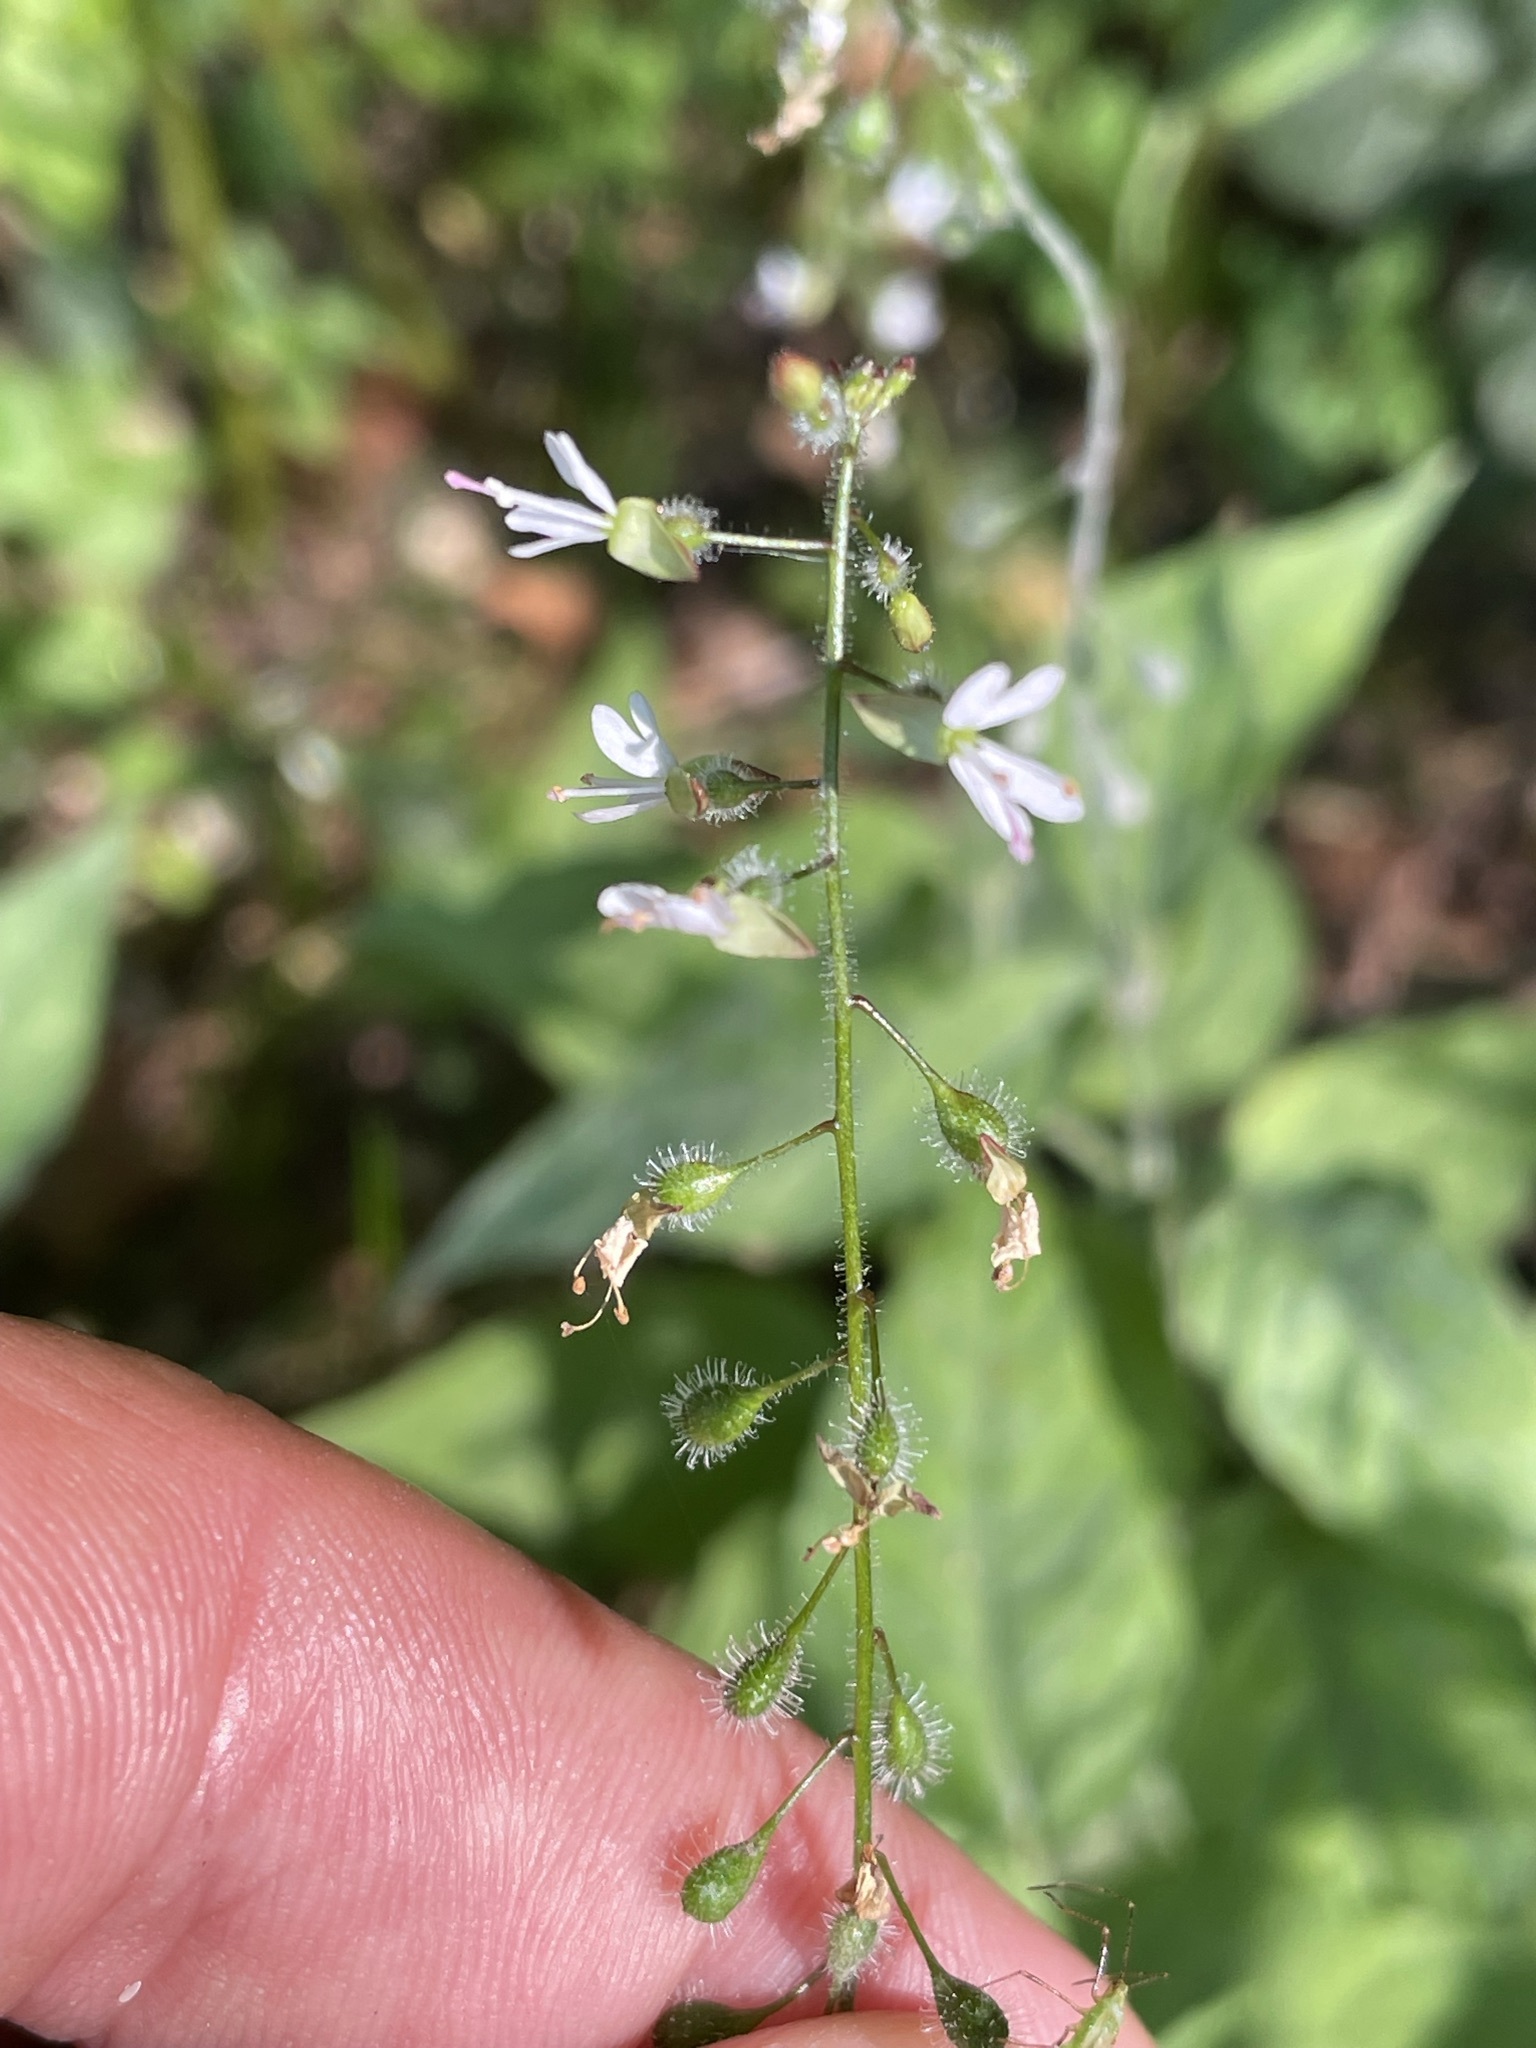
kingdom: Plantae
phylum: Tracheophyta
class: Magnoliopsida
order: Myrtales
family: Onagraceae
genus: Circaea
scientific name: Circaea lutetiana
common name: Enchanter's-nightshade
